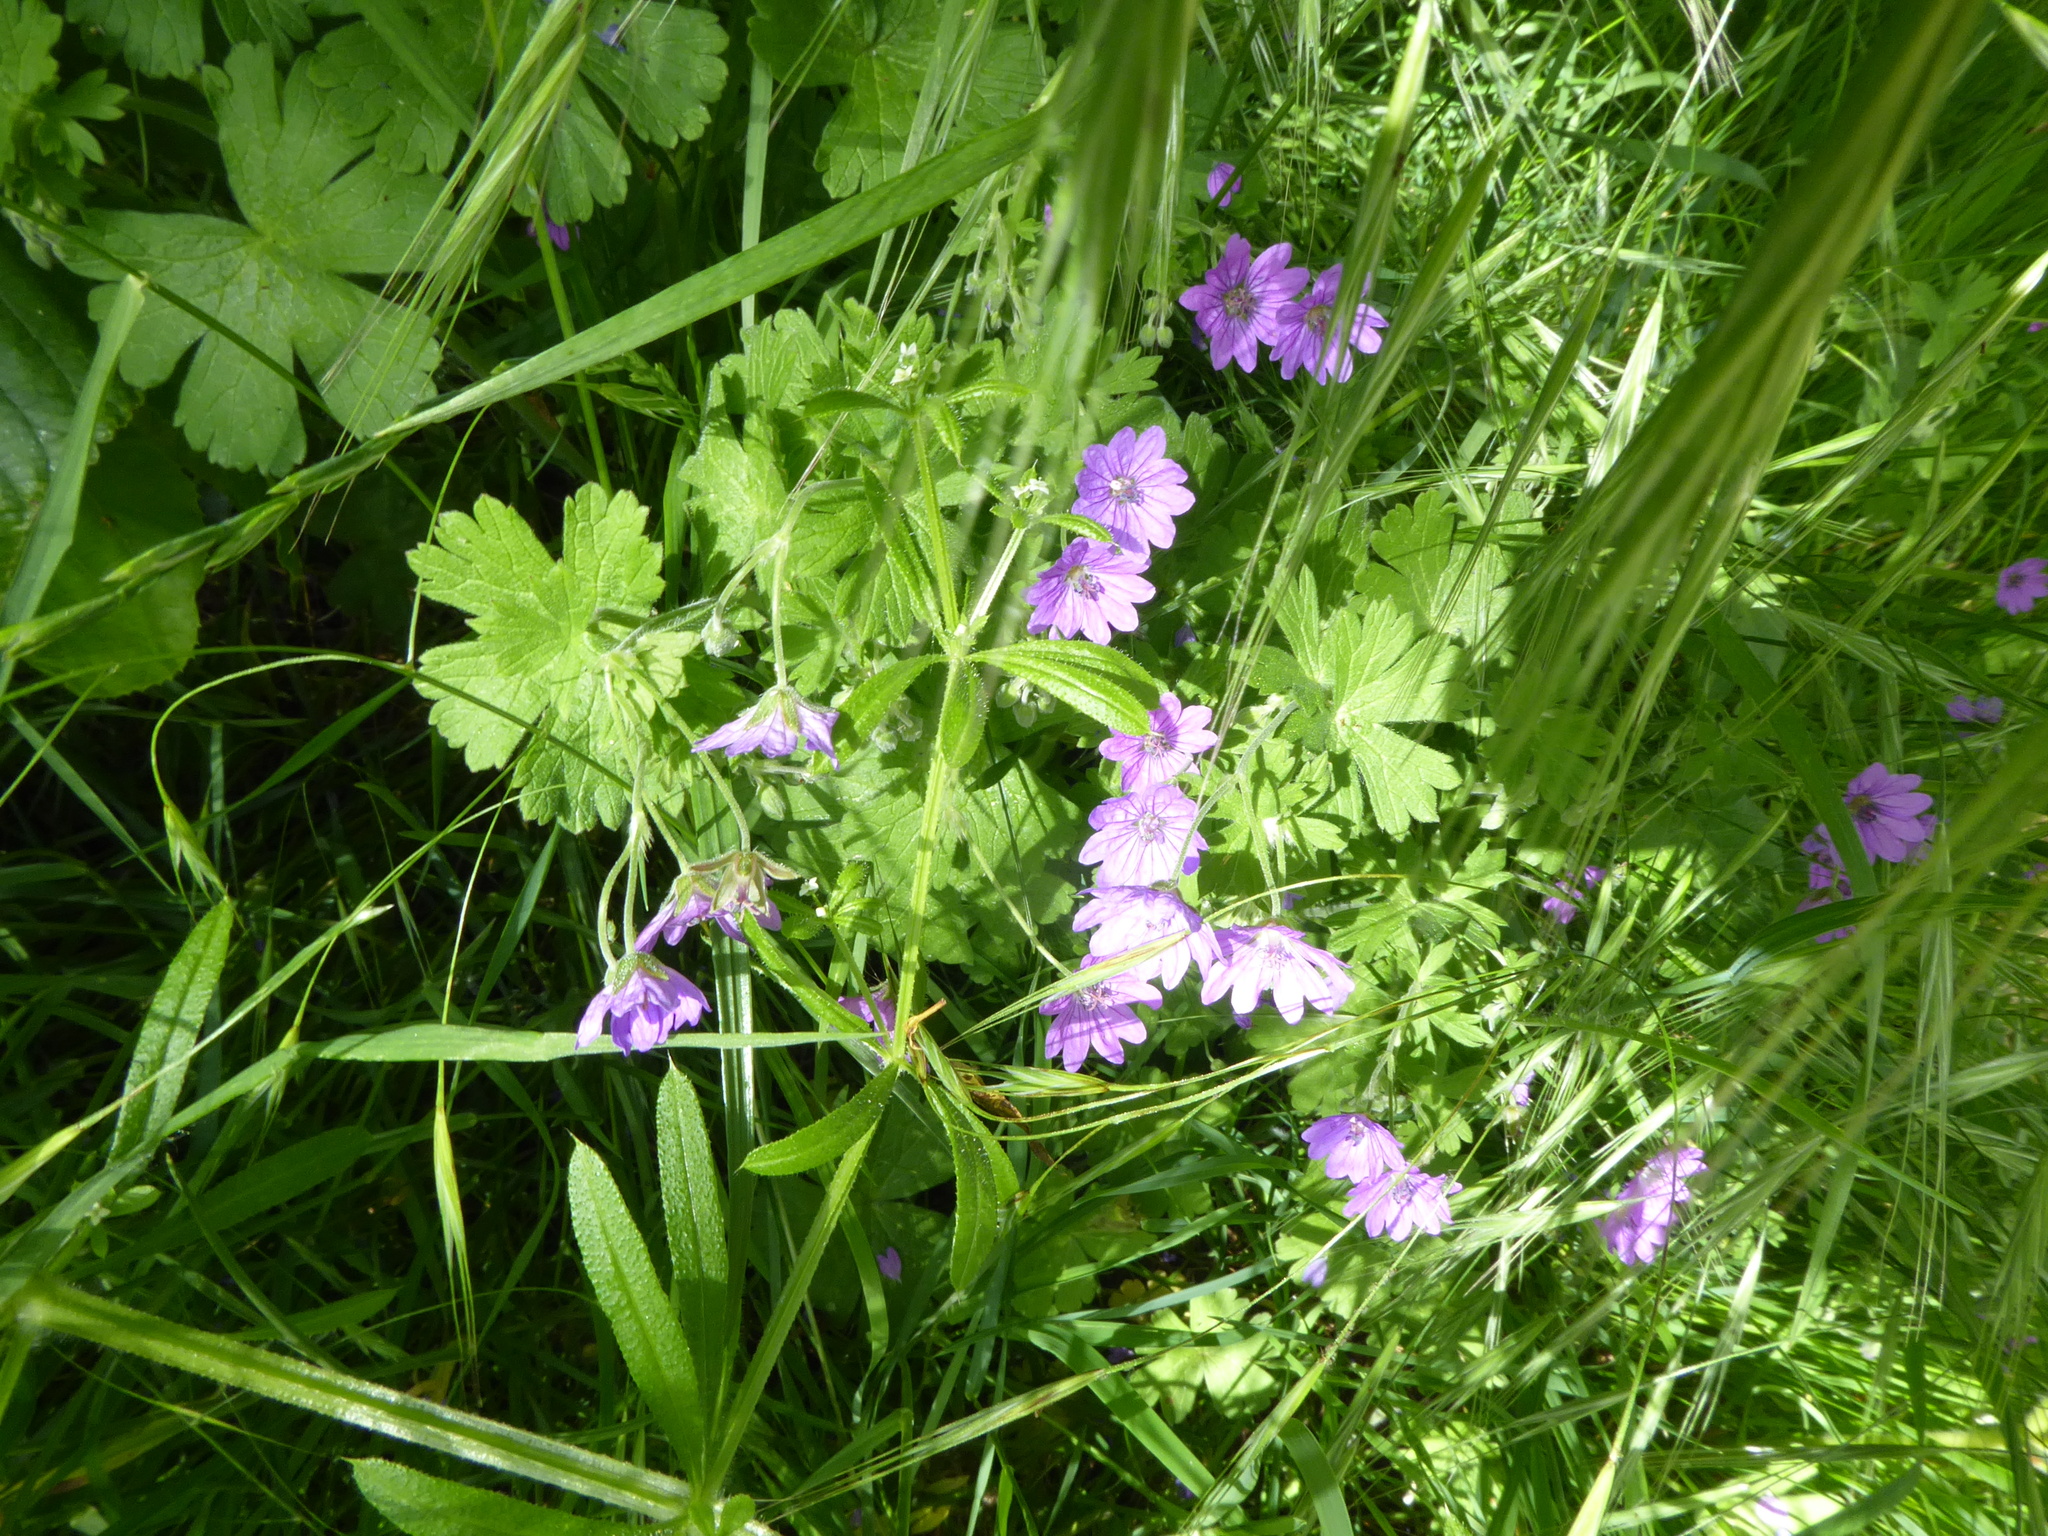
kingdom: Plantae
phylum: Tracheophyta
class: Magnoliopsida
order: Geraniales
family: Geraniaceae
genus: Geranium
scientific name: Geranium pyrenaicum
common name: Hedgerow crane's-bill
